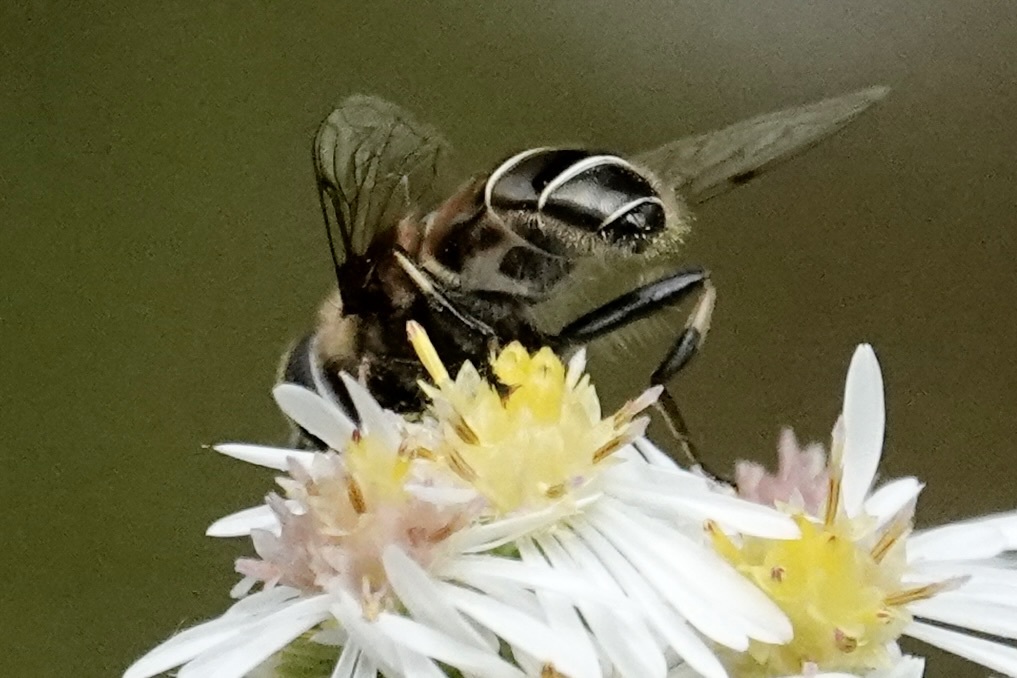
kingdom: Animalia
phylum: Arthropoda
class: Insecta
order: Diptera
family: Syrphidae
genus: Eristalis
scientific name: Eristalis dimidiata
